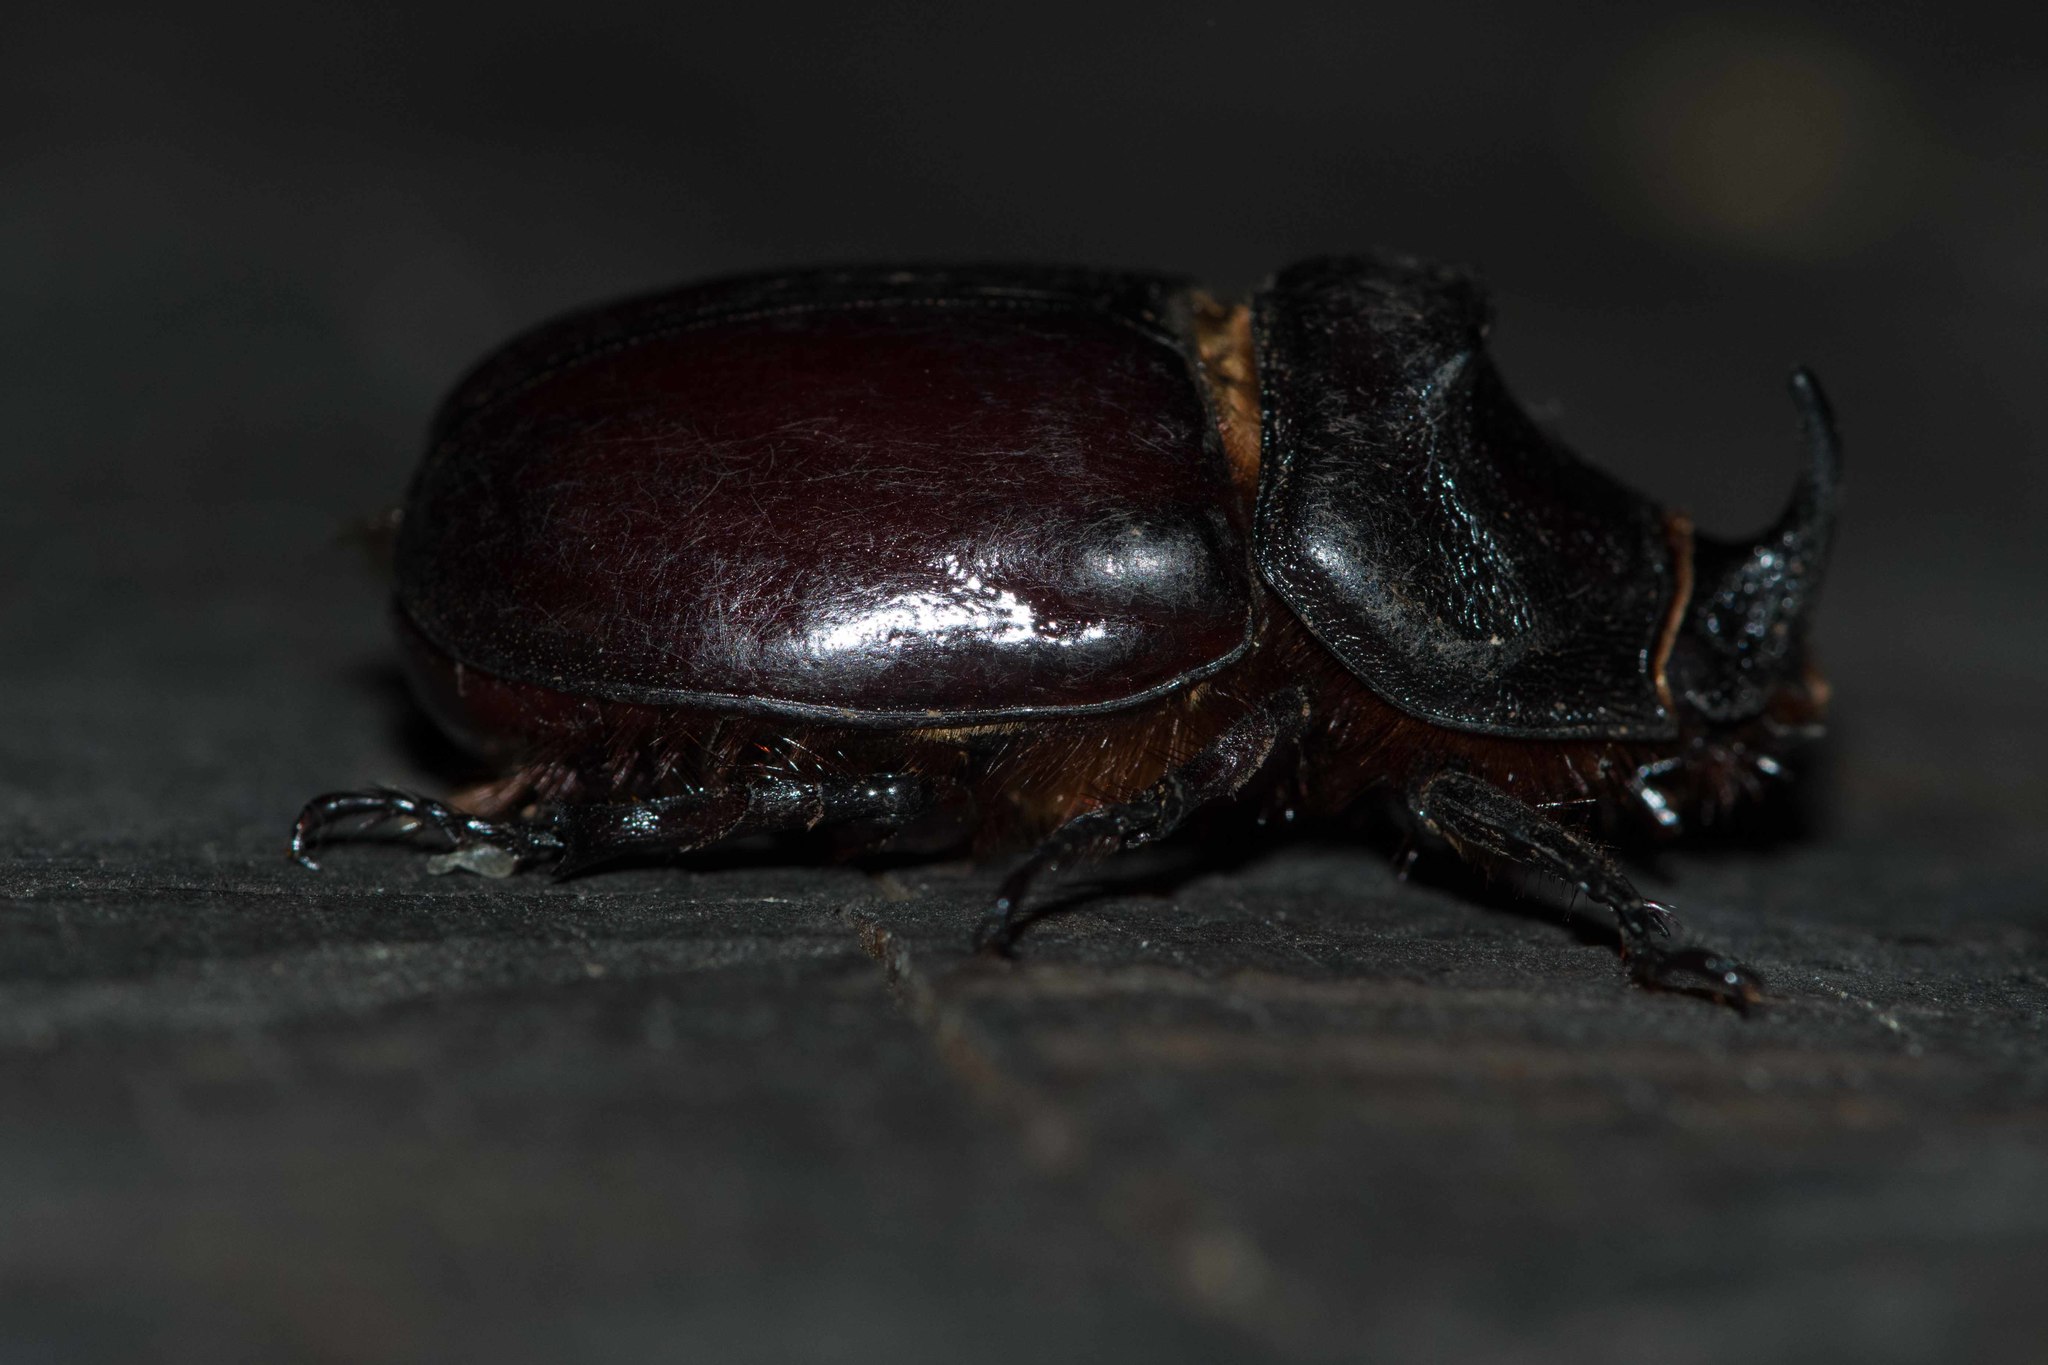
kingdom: Animalia
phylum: Arthropoda
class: Insecta
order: Coleoptera
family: Scarabaeidae
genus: Oryctes
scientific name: Oryctes nasicornis
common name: European rhinoceros beetle
